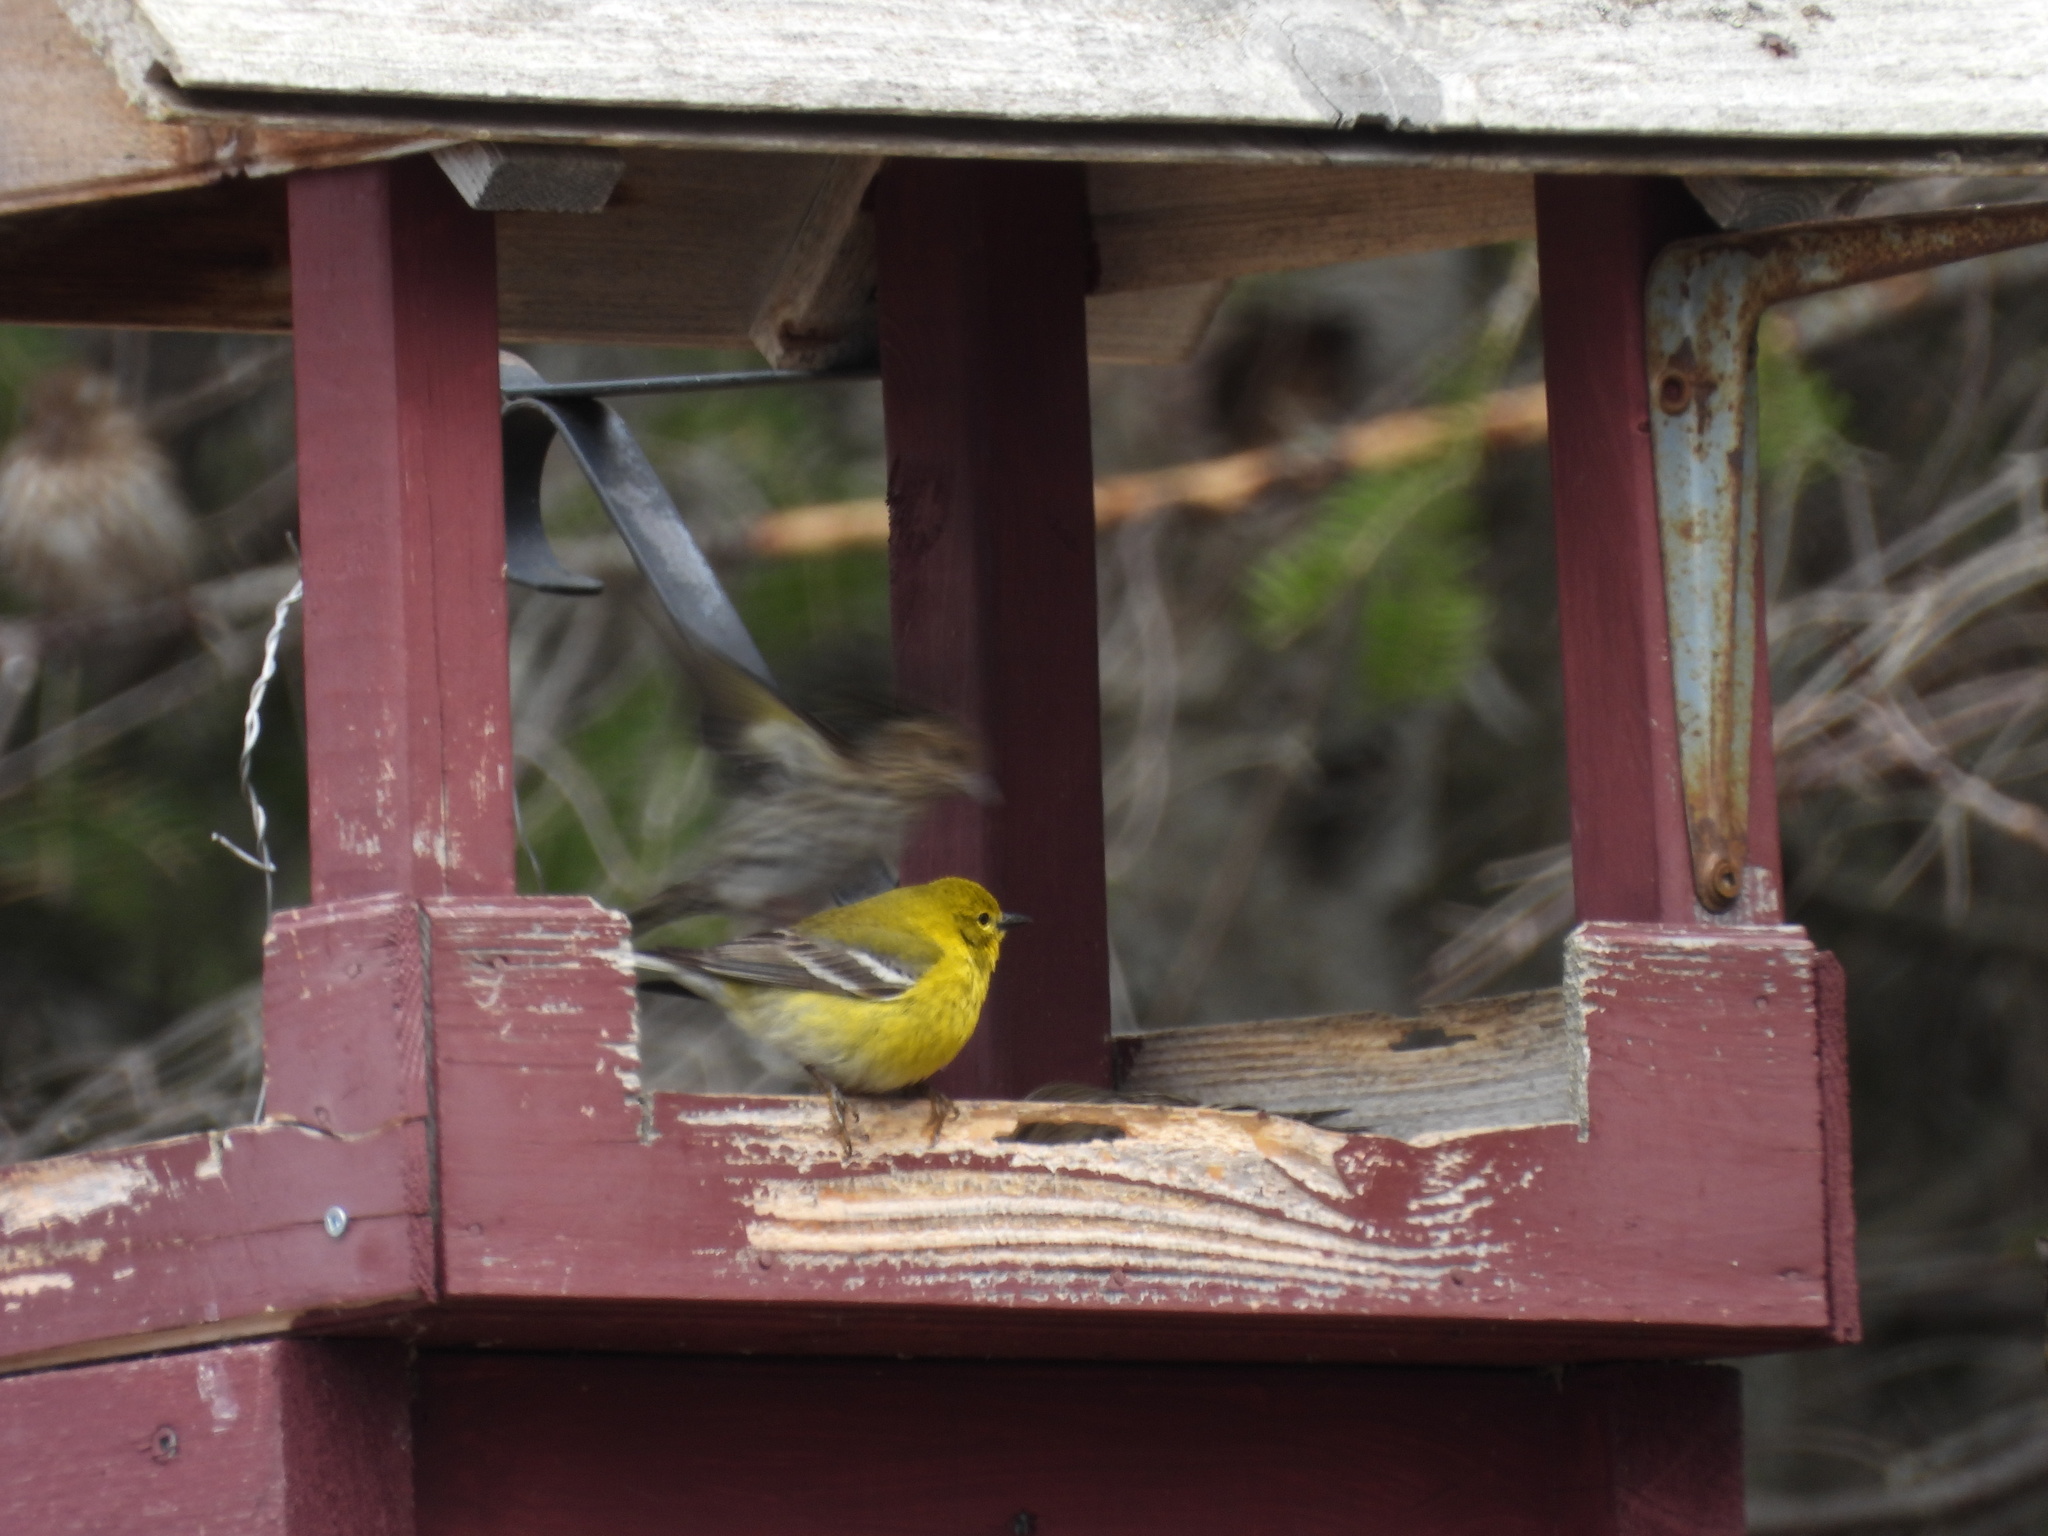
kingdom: Animalia
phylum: Chordata
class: Aves
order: Passeriformes
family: Parulidae
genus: Setophaga
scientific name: Setophaga pinus
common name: Pine warbler
